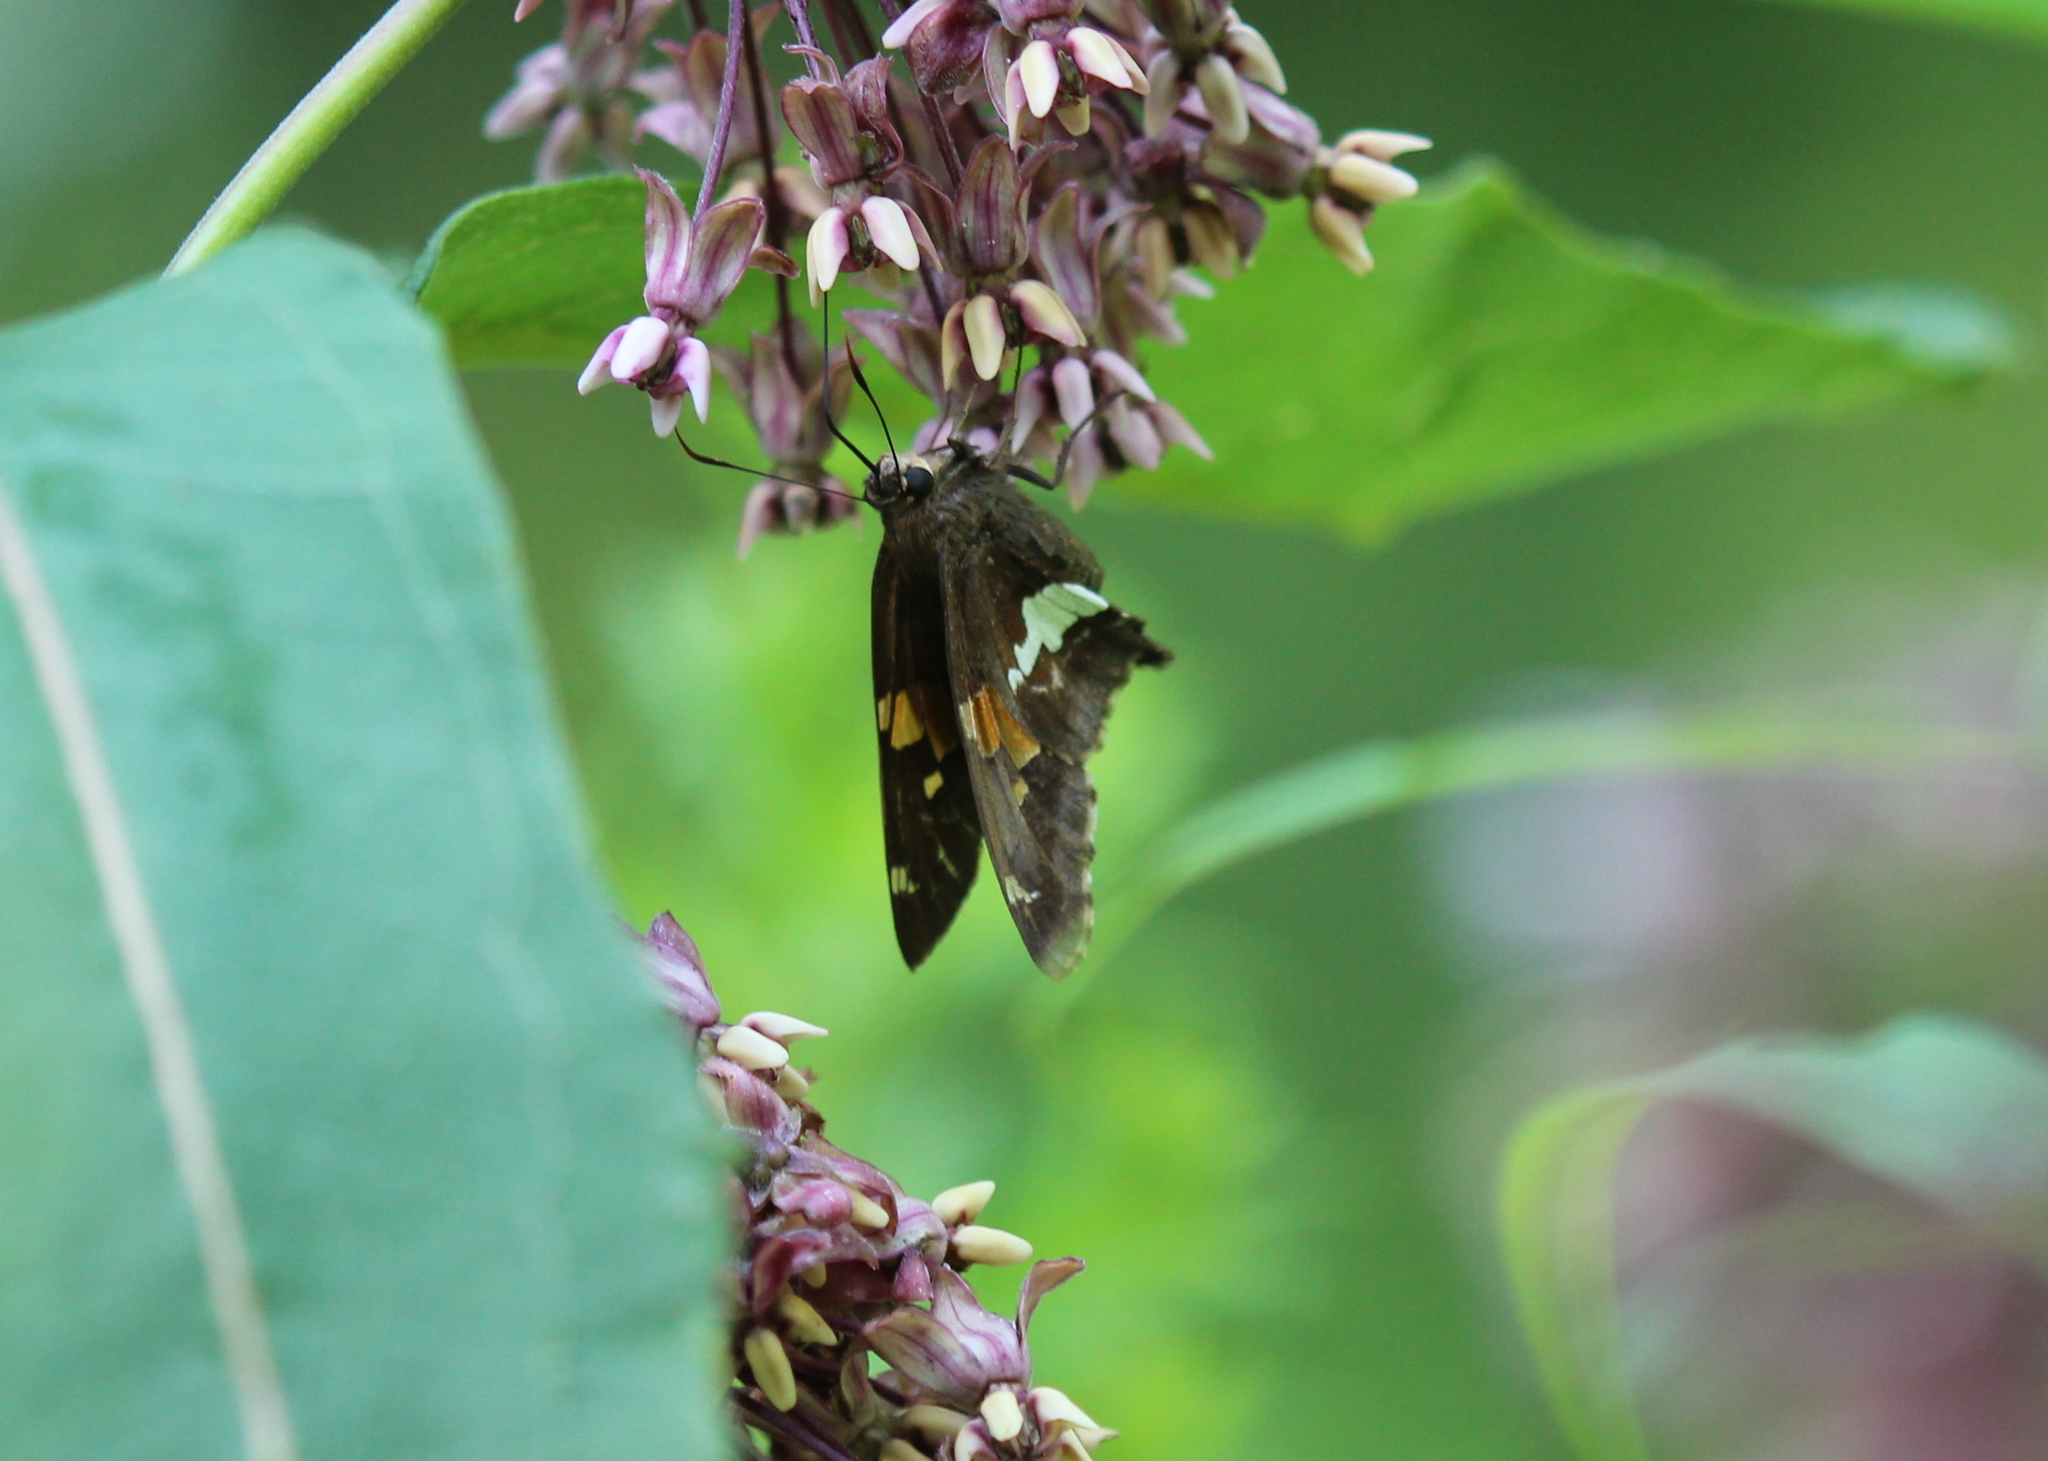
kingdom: Animalia
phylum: Arthropoda
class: Insecta
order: Lepidoptera
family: Hesperiidae
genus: Epargyreus
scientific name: Epargyreus clarus
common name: Silver-spotted skipper
